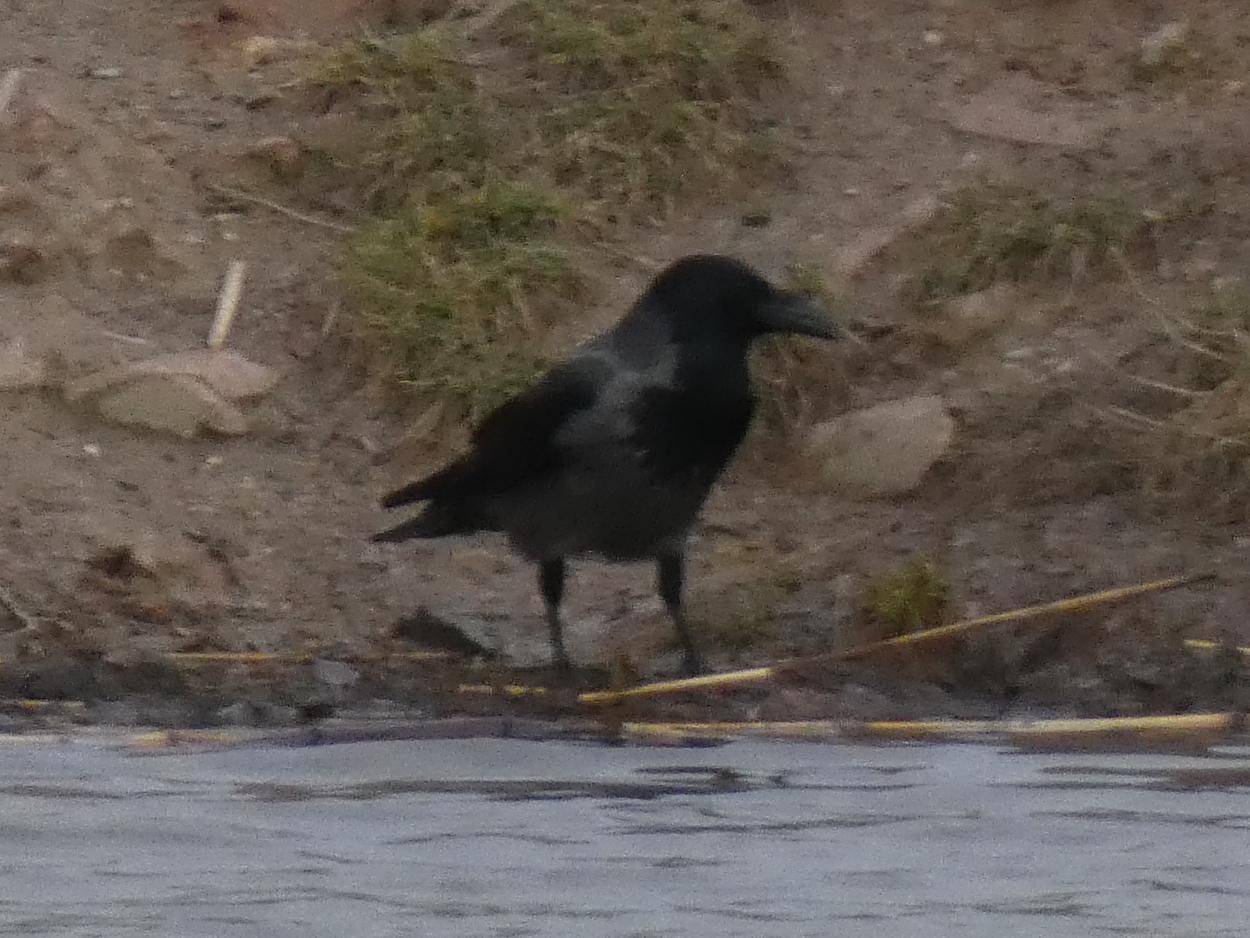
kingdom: Animalia
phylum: Chordata
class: Aves
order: Passeriformes
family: Corvidae
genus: Corvus
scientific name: Corvus
